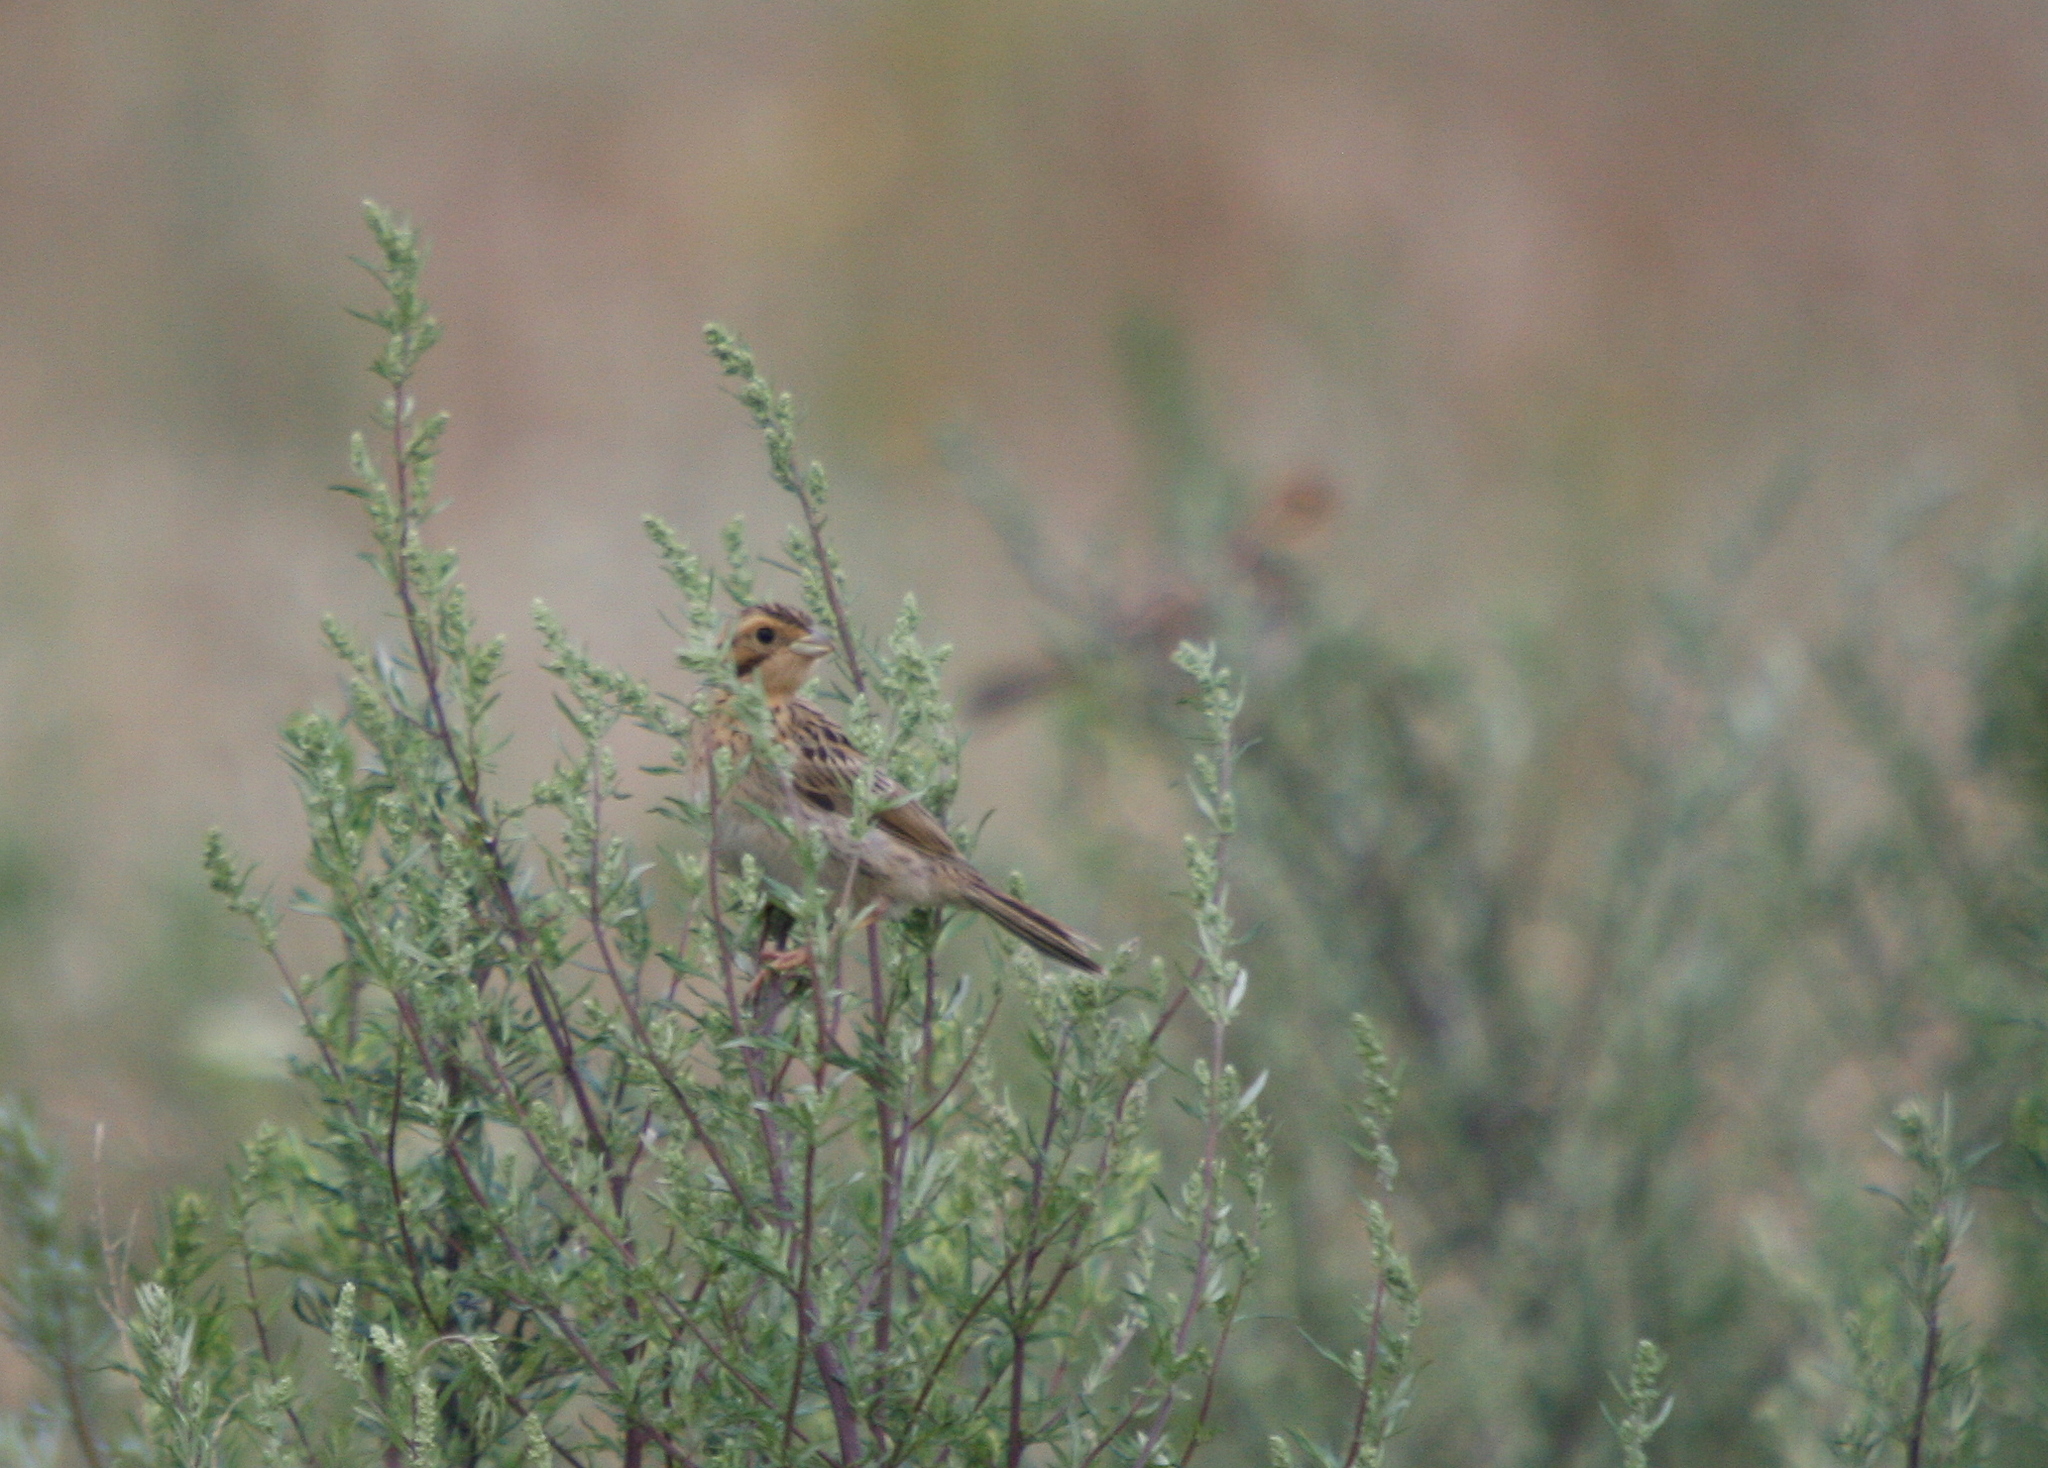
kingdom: Animalia
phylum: Chordata
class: Aves
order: Passeriformes
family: Emberizidae
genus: Emberiza
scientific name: Emberiza calandra
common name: Corn bunting
